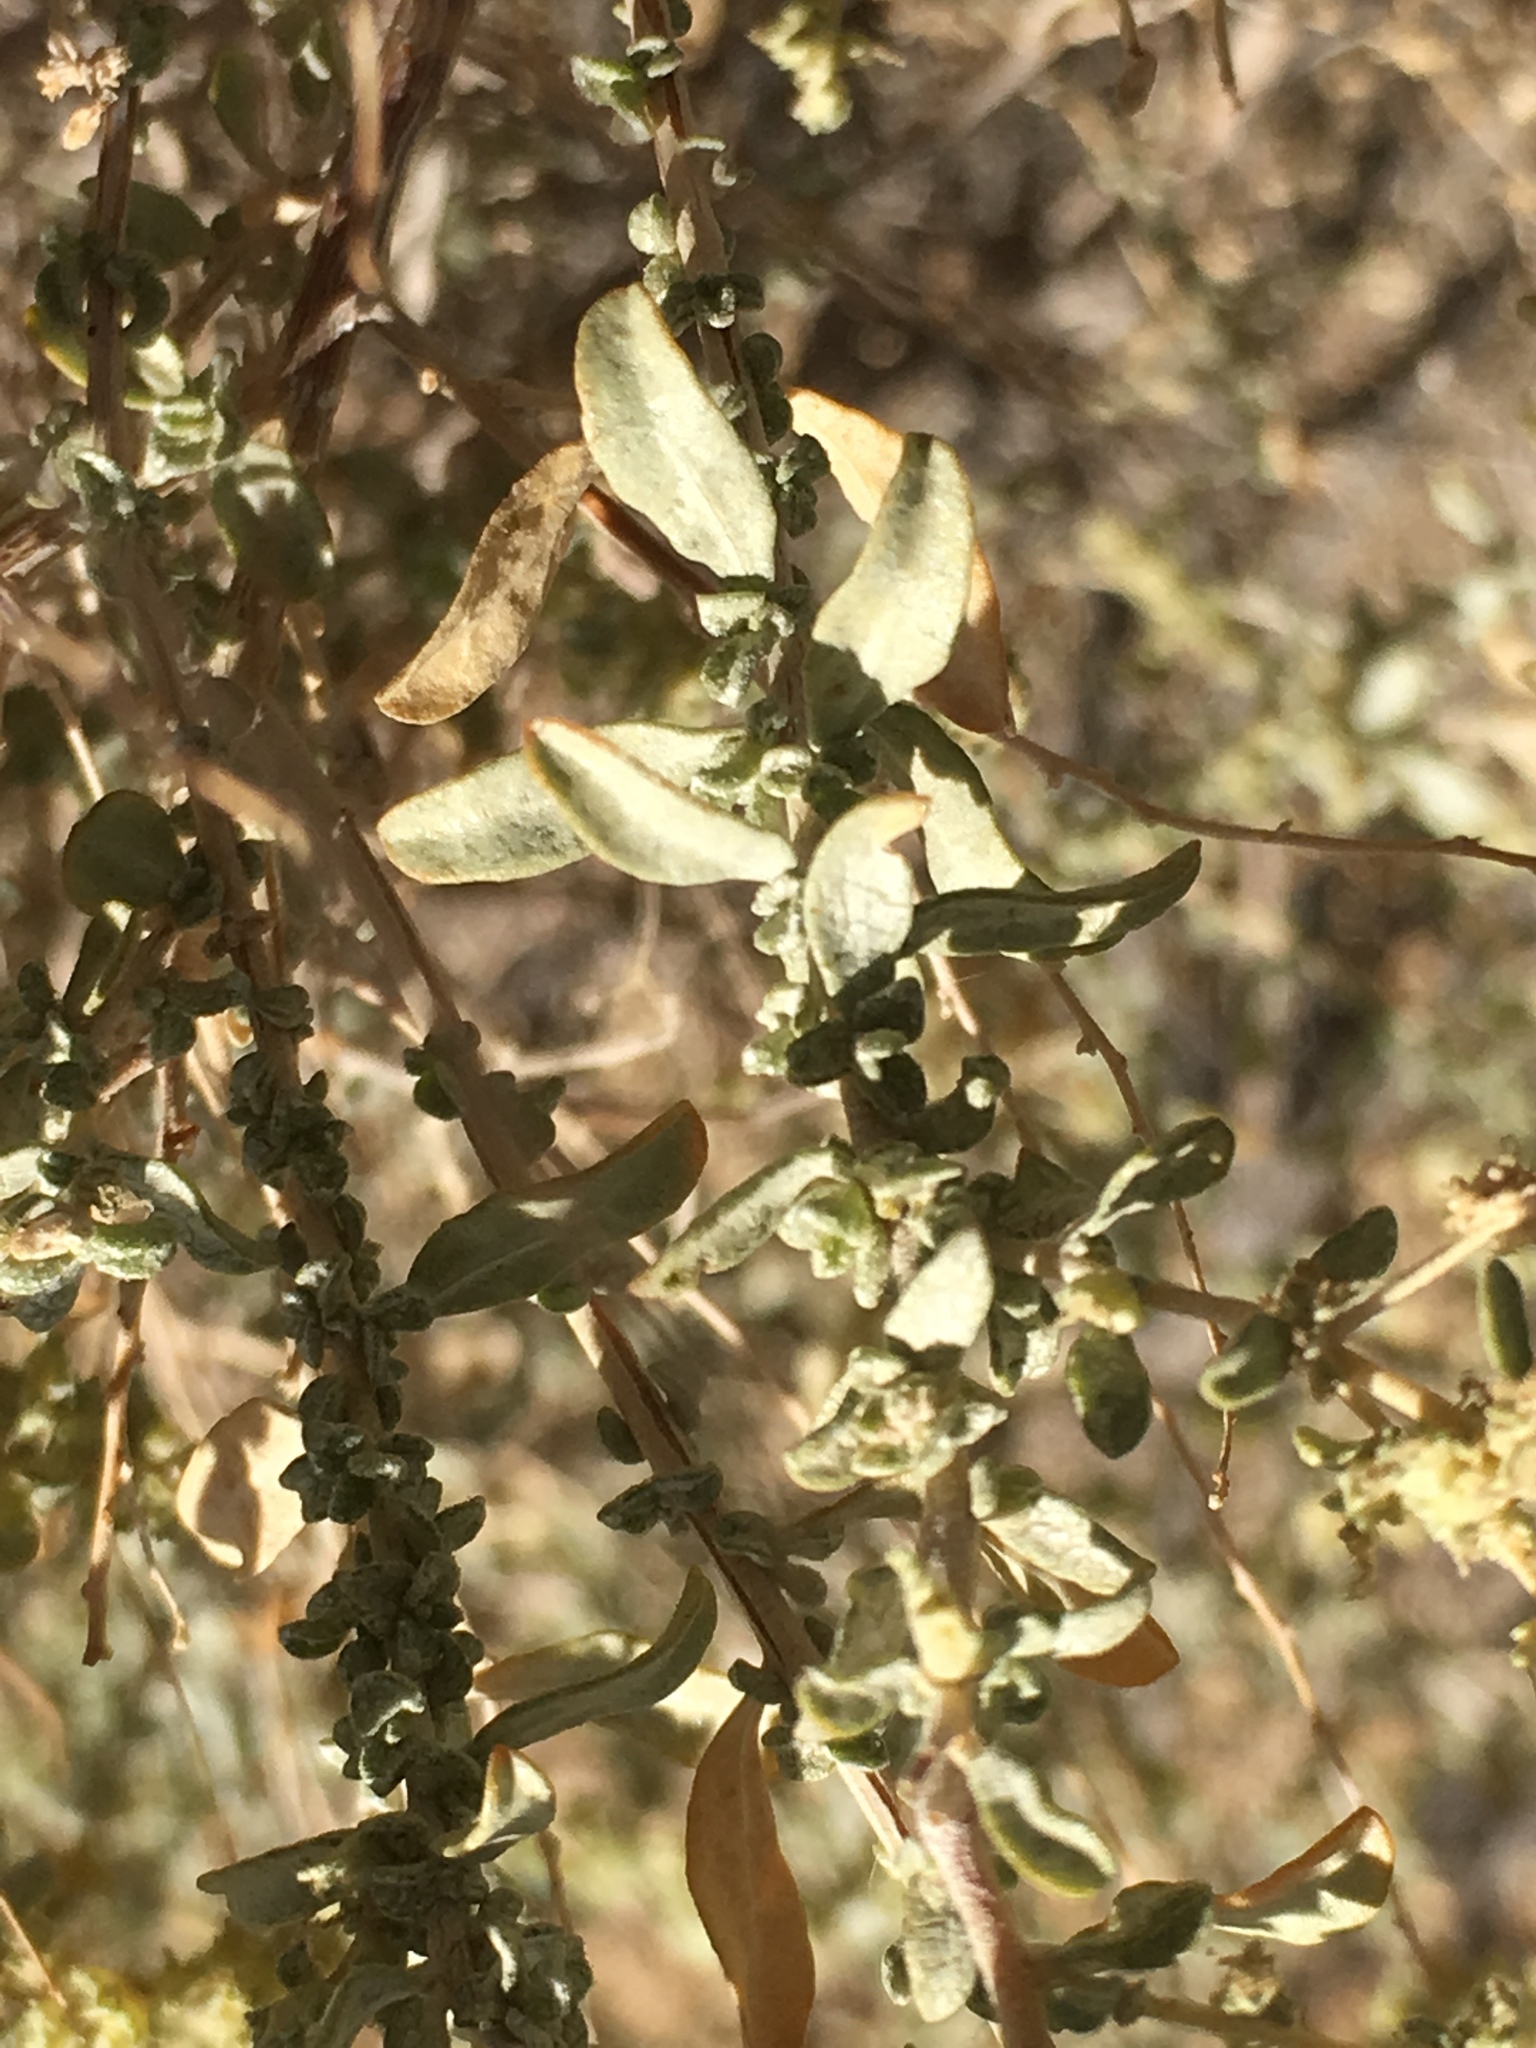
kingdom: Plantae
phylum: Tracheophyta
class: Magnoliopsida
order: Caryophyllales
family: Amaranthaceae
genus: Atriplex
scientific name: Atriplex polycarpa
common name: Desert saltbush
